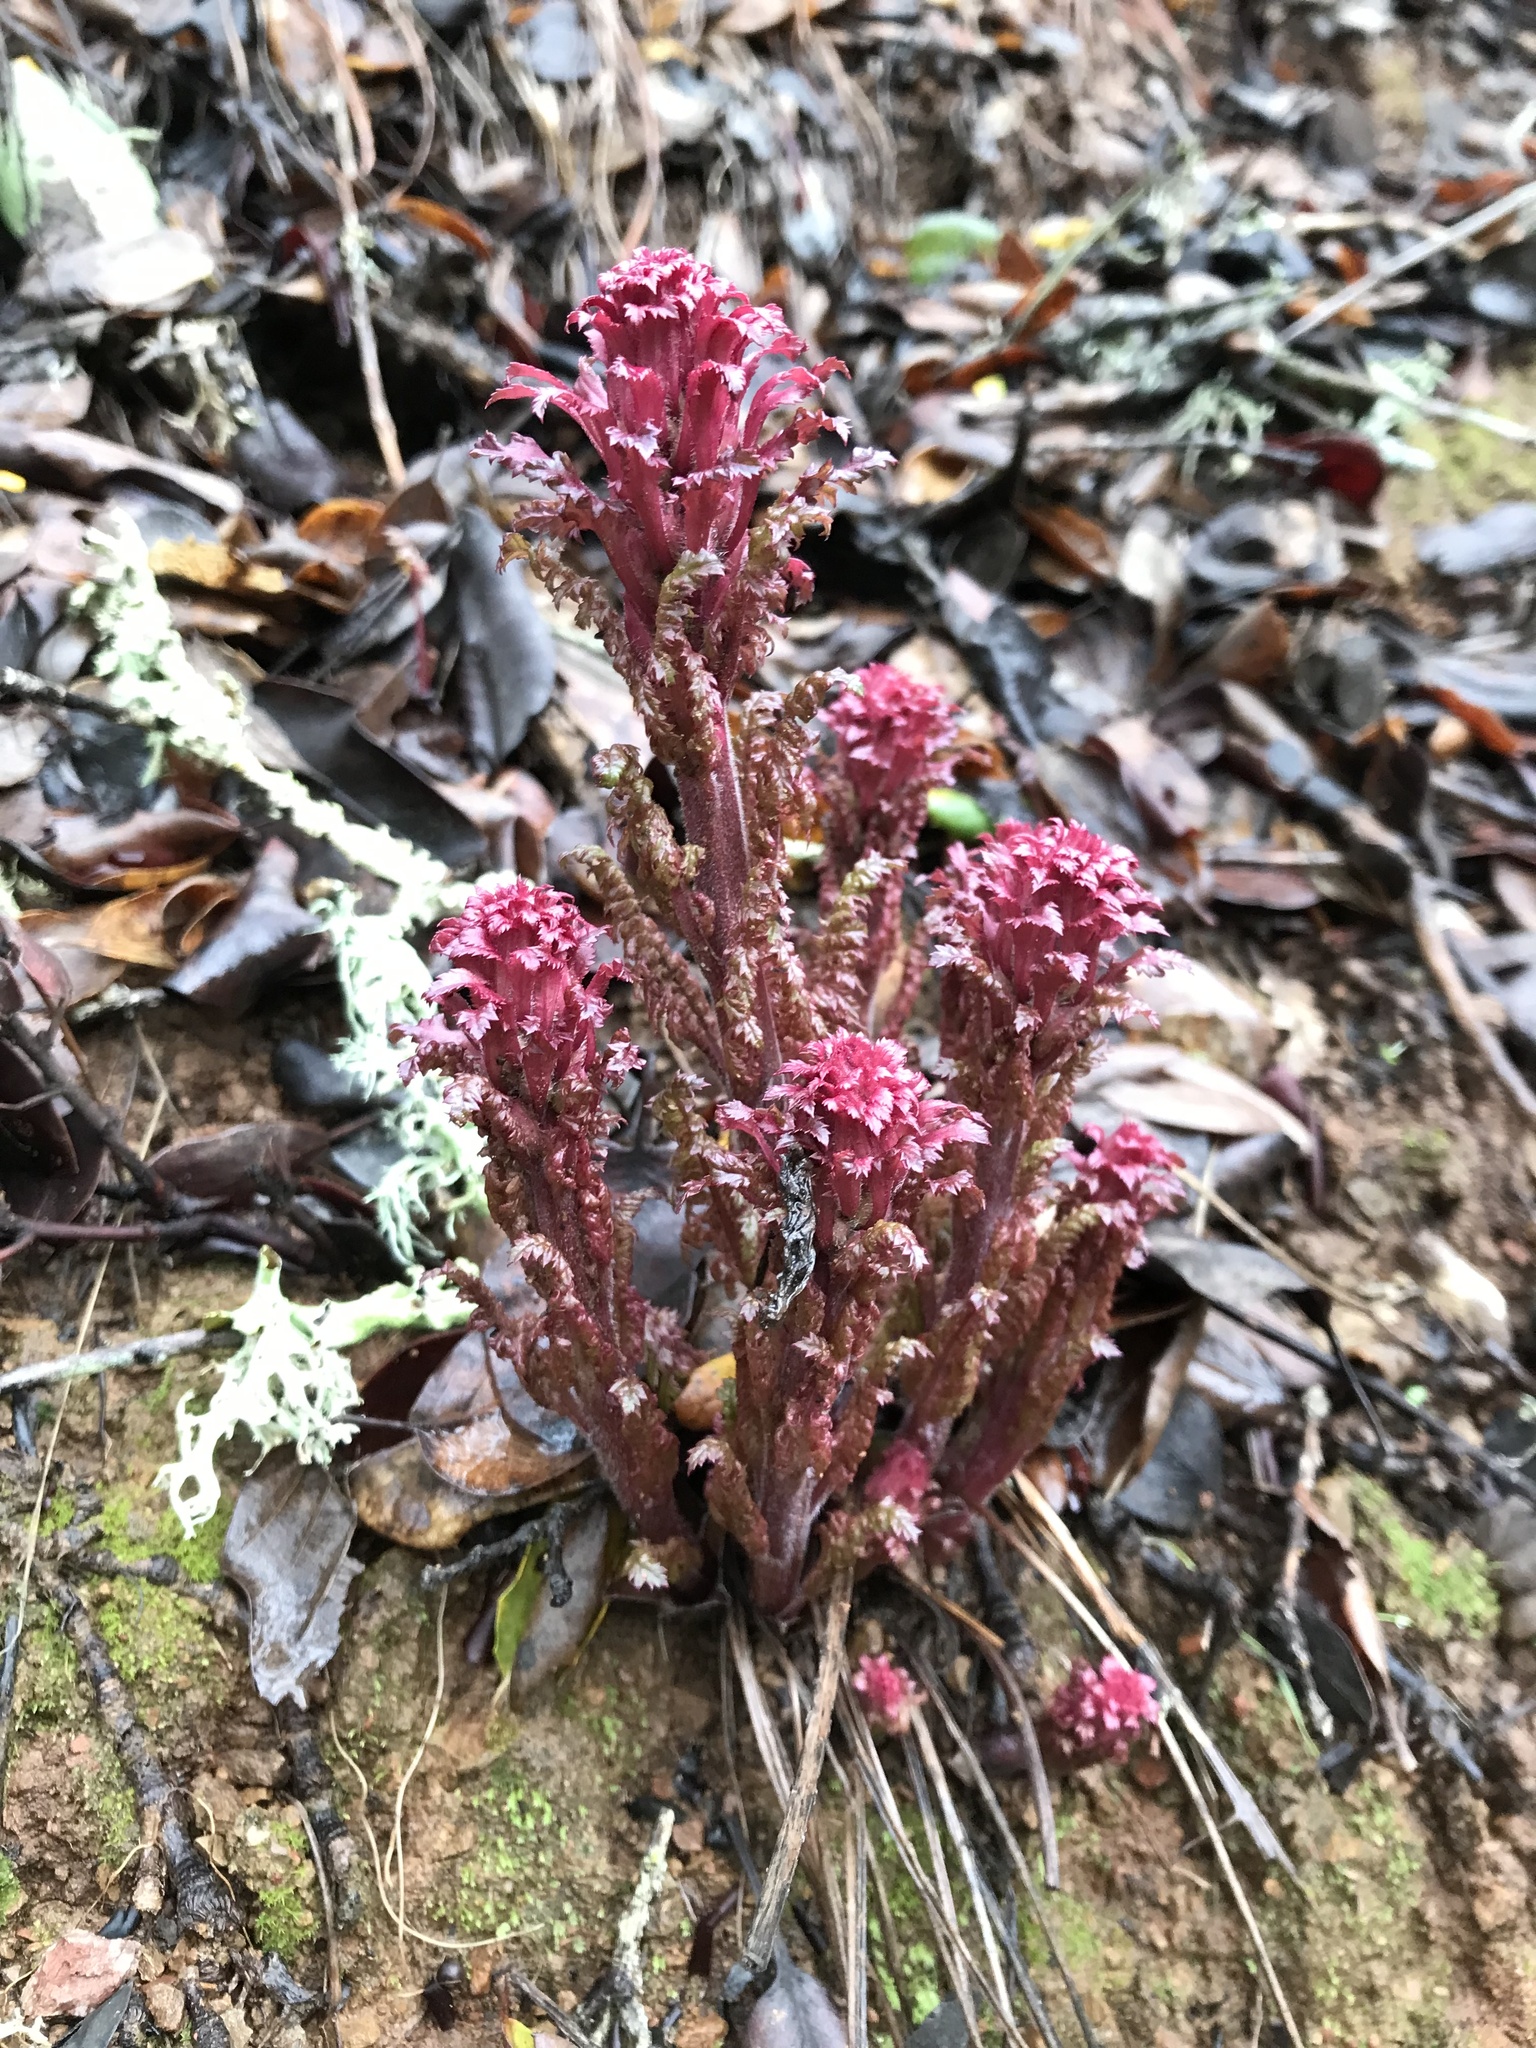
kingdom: Plantae
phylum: Tracheophyta
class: Magnoliopsida
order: Lamiales
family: Orobanchaceae
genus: Pedicularis
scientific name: Pedicularis densiflora
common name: Indian warrior
